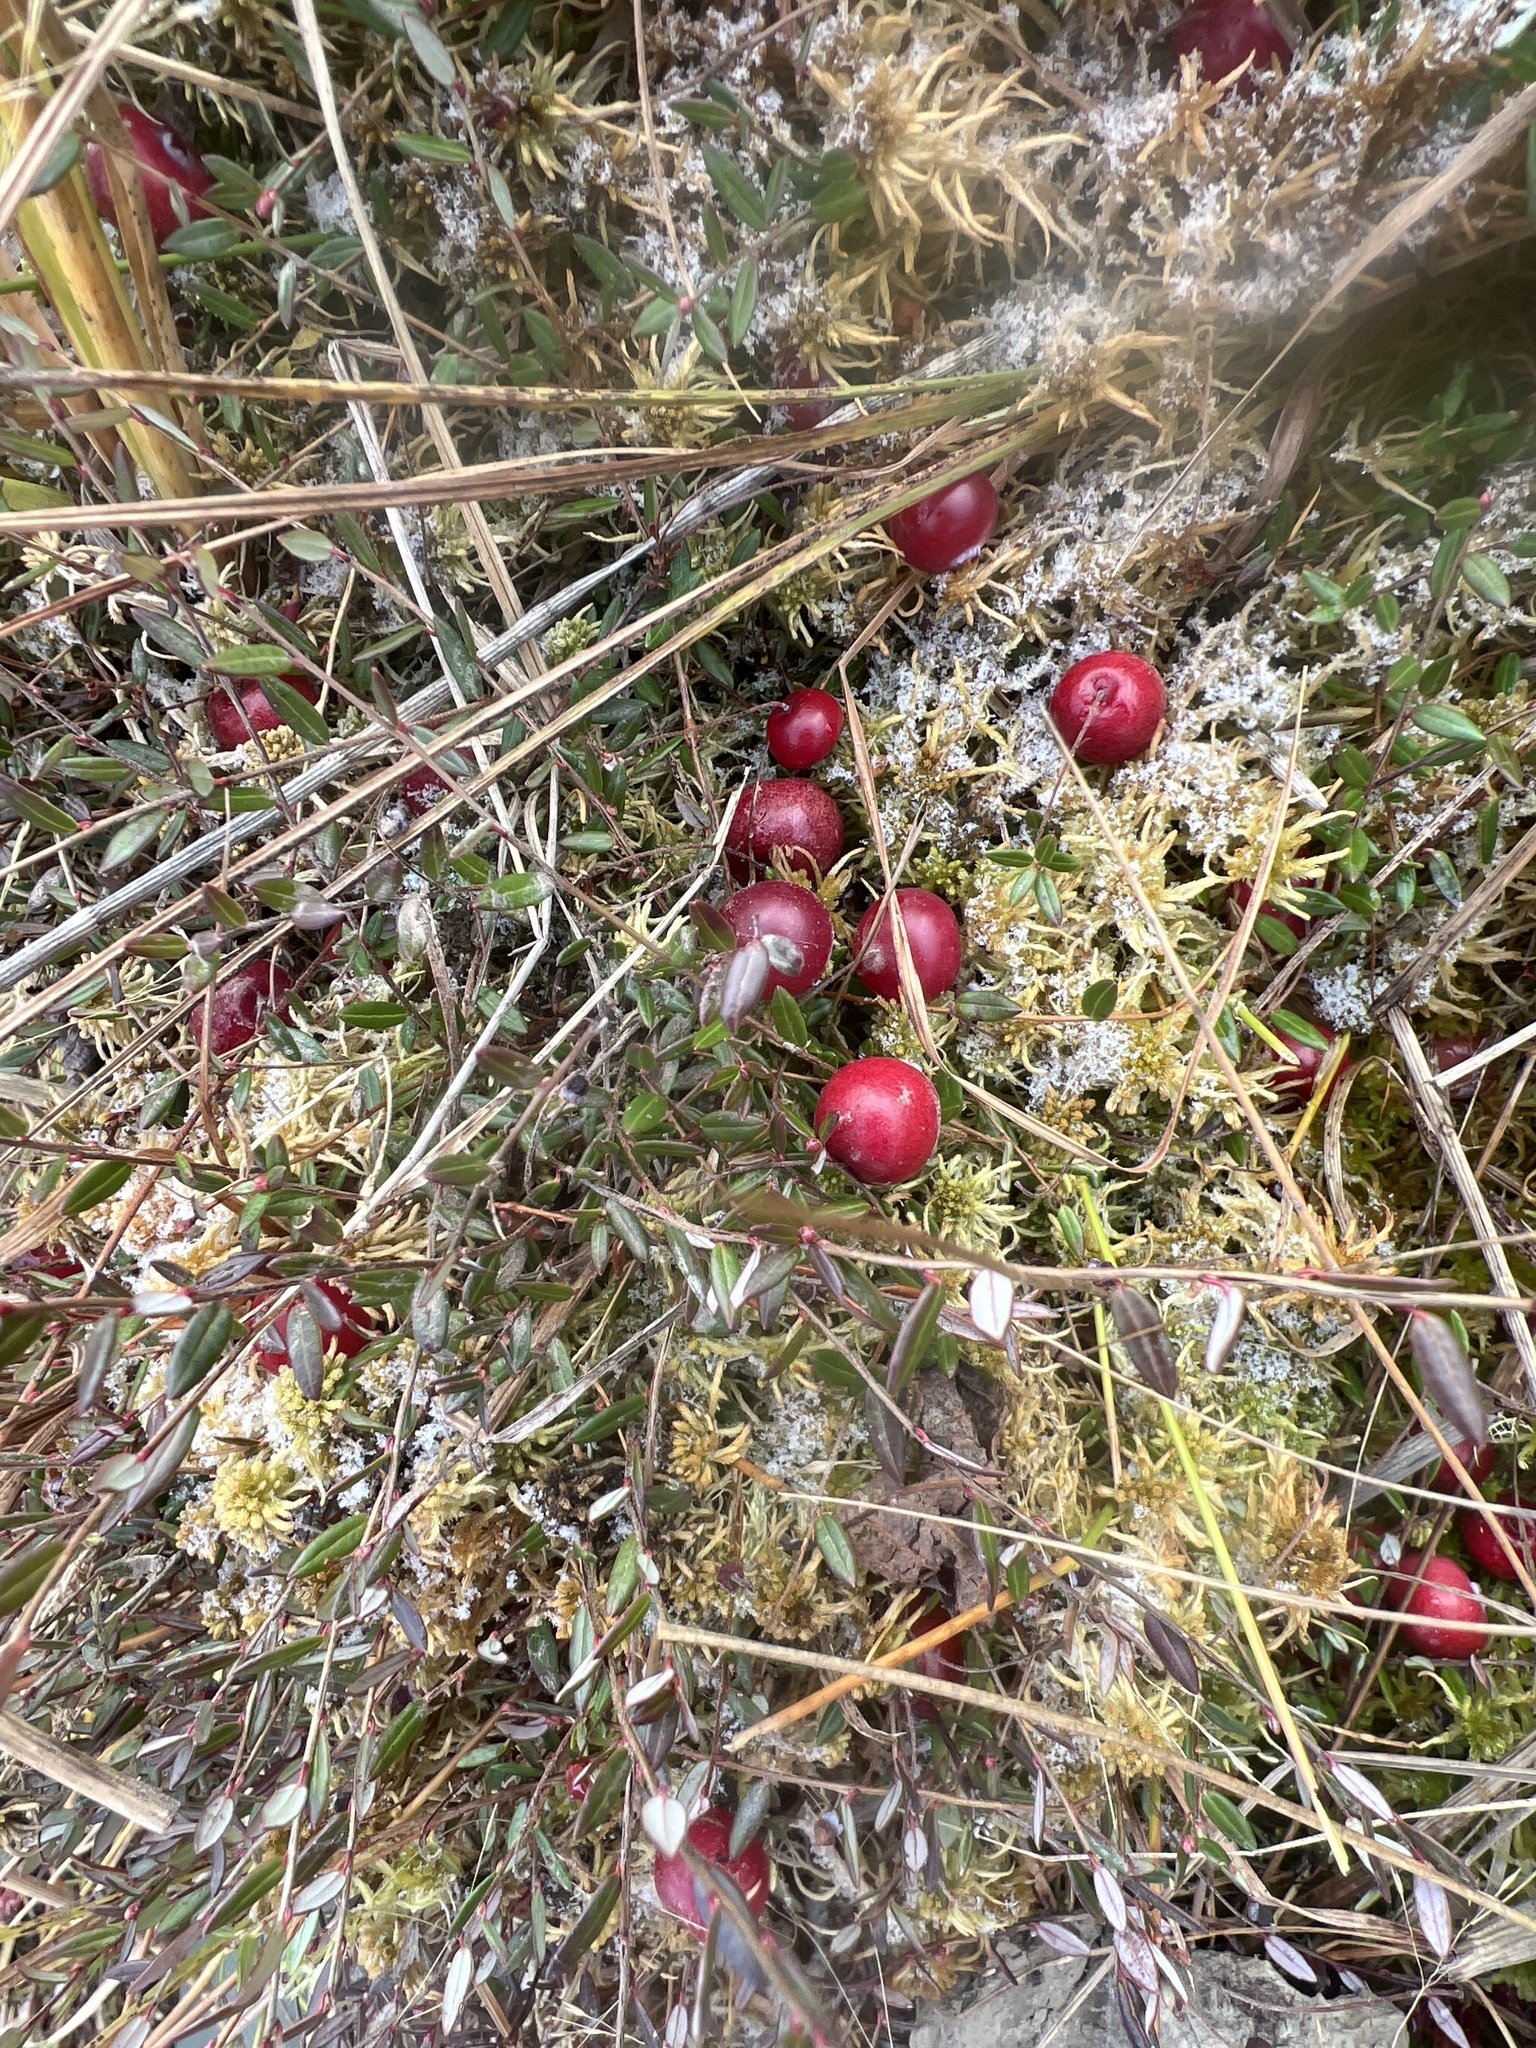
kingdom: Plantae
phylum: Tracheophyta
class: Magnoliopsida
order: Ericales
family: Ericaceae
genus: Vaccinium
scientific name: Vaccinium oxycoccos
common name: Cranberry
